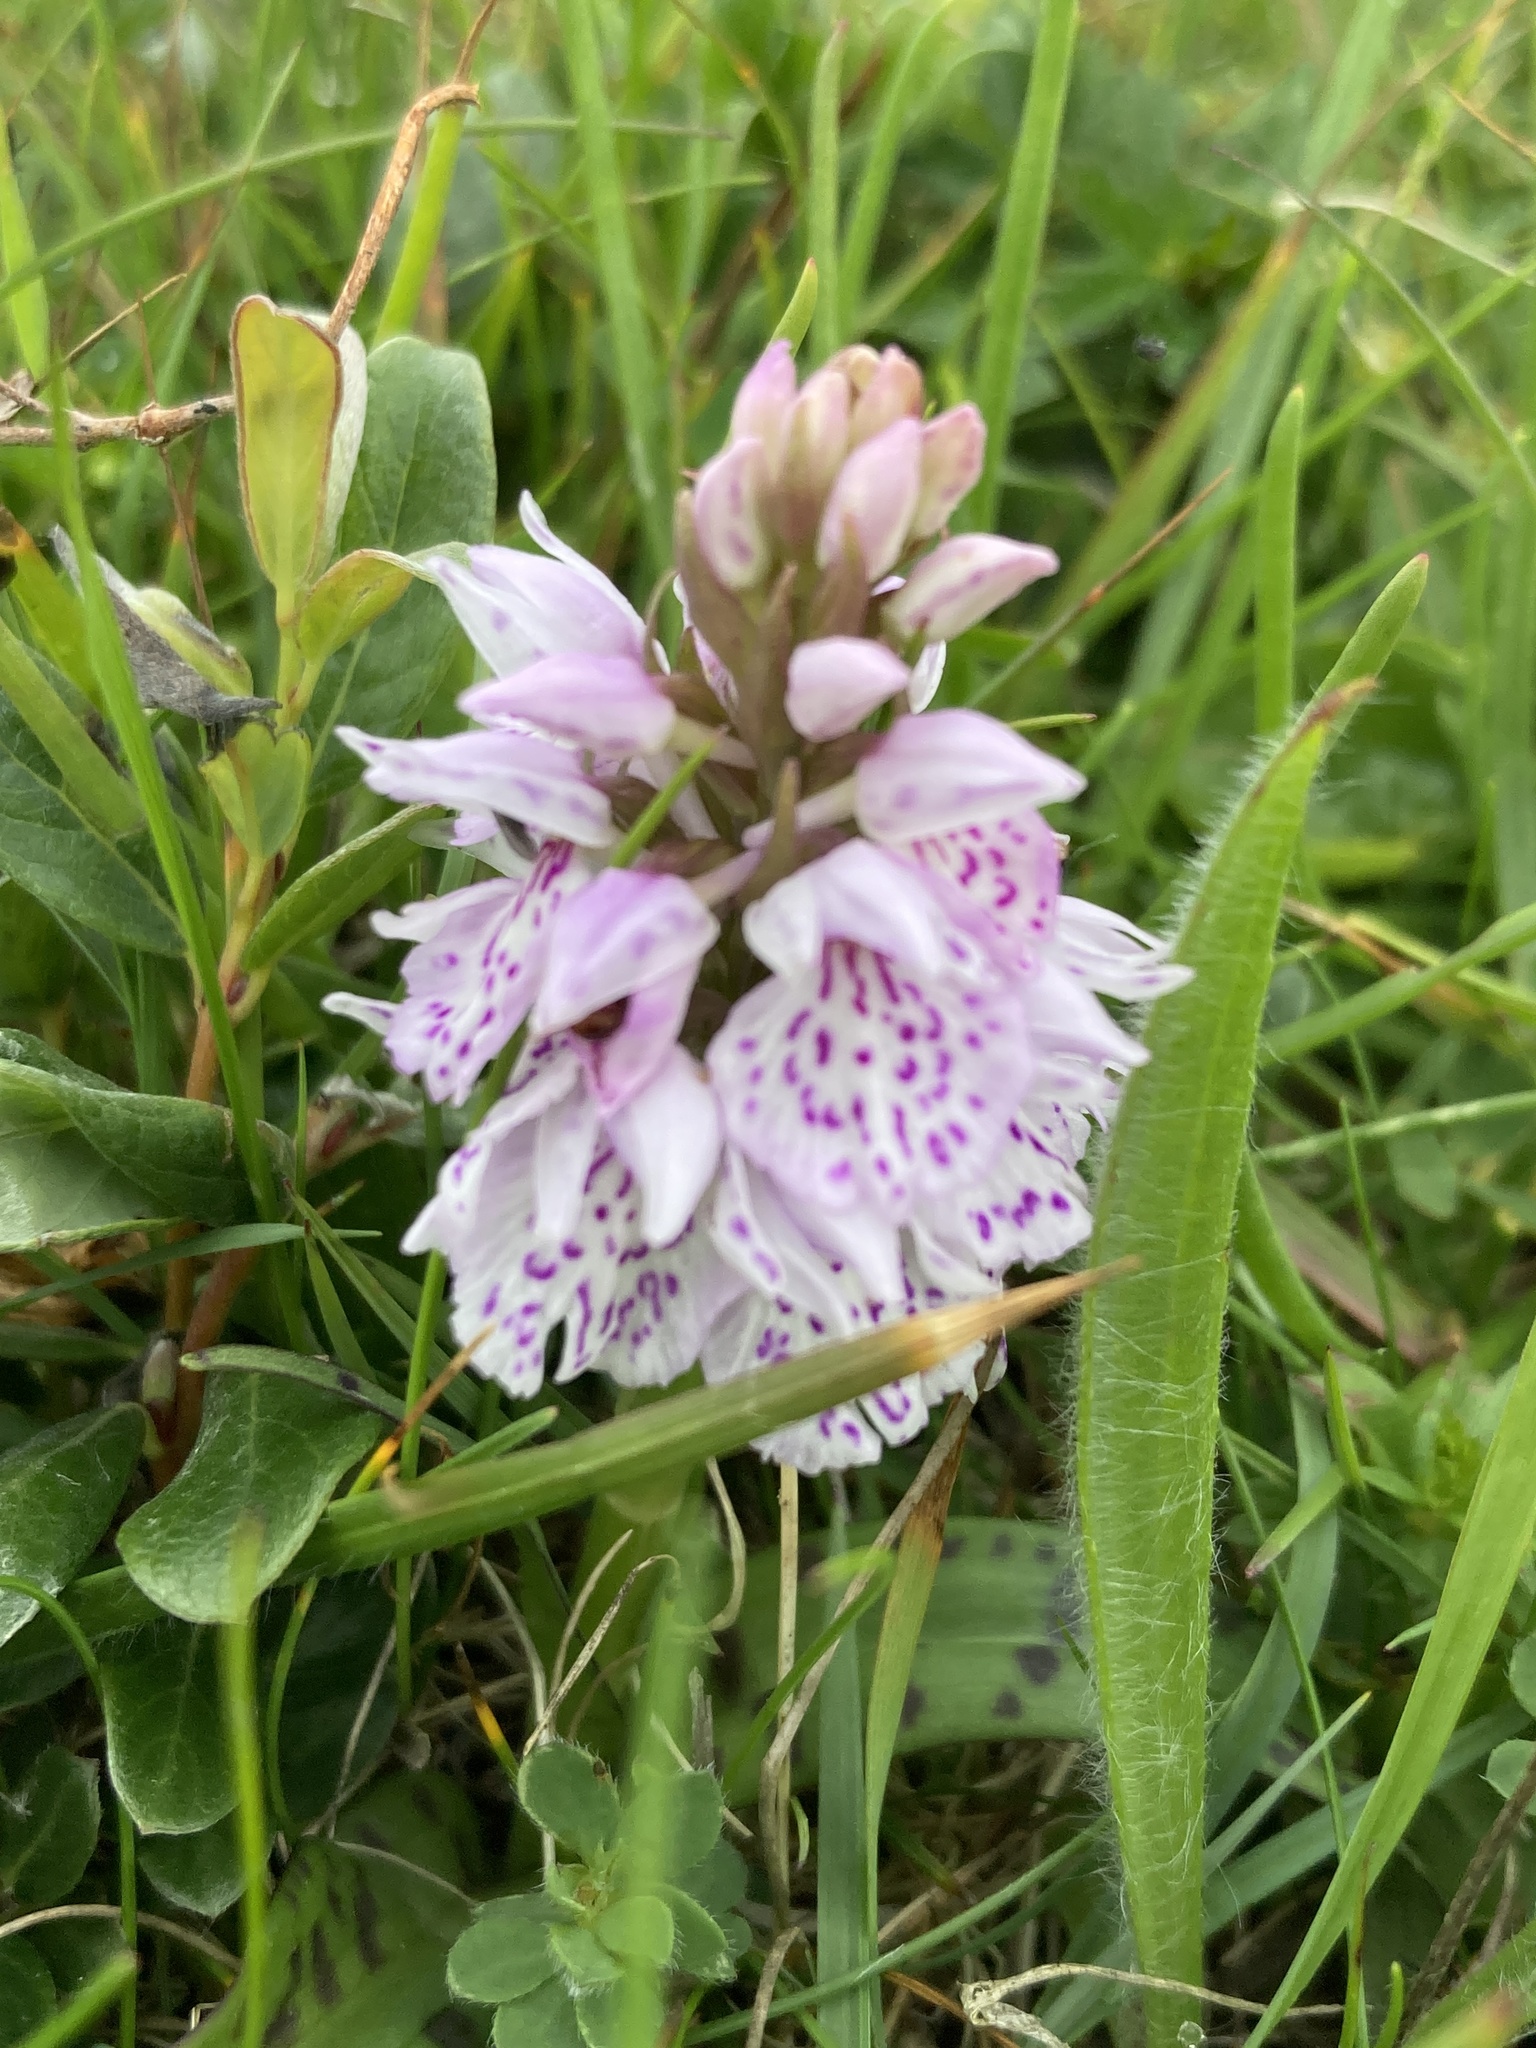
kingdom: Plantae
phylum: Tracheophyta
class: Liliopsida
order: Asparagales
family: Orchidaceae
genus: Dactylorhiza
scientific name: Dactylorhiza maculata
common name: Heath spotted-orchid
